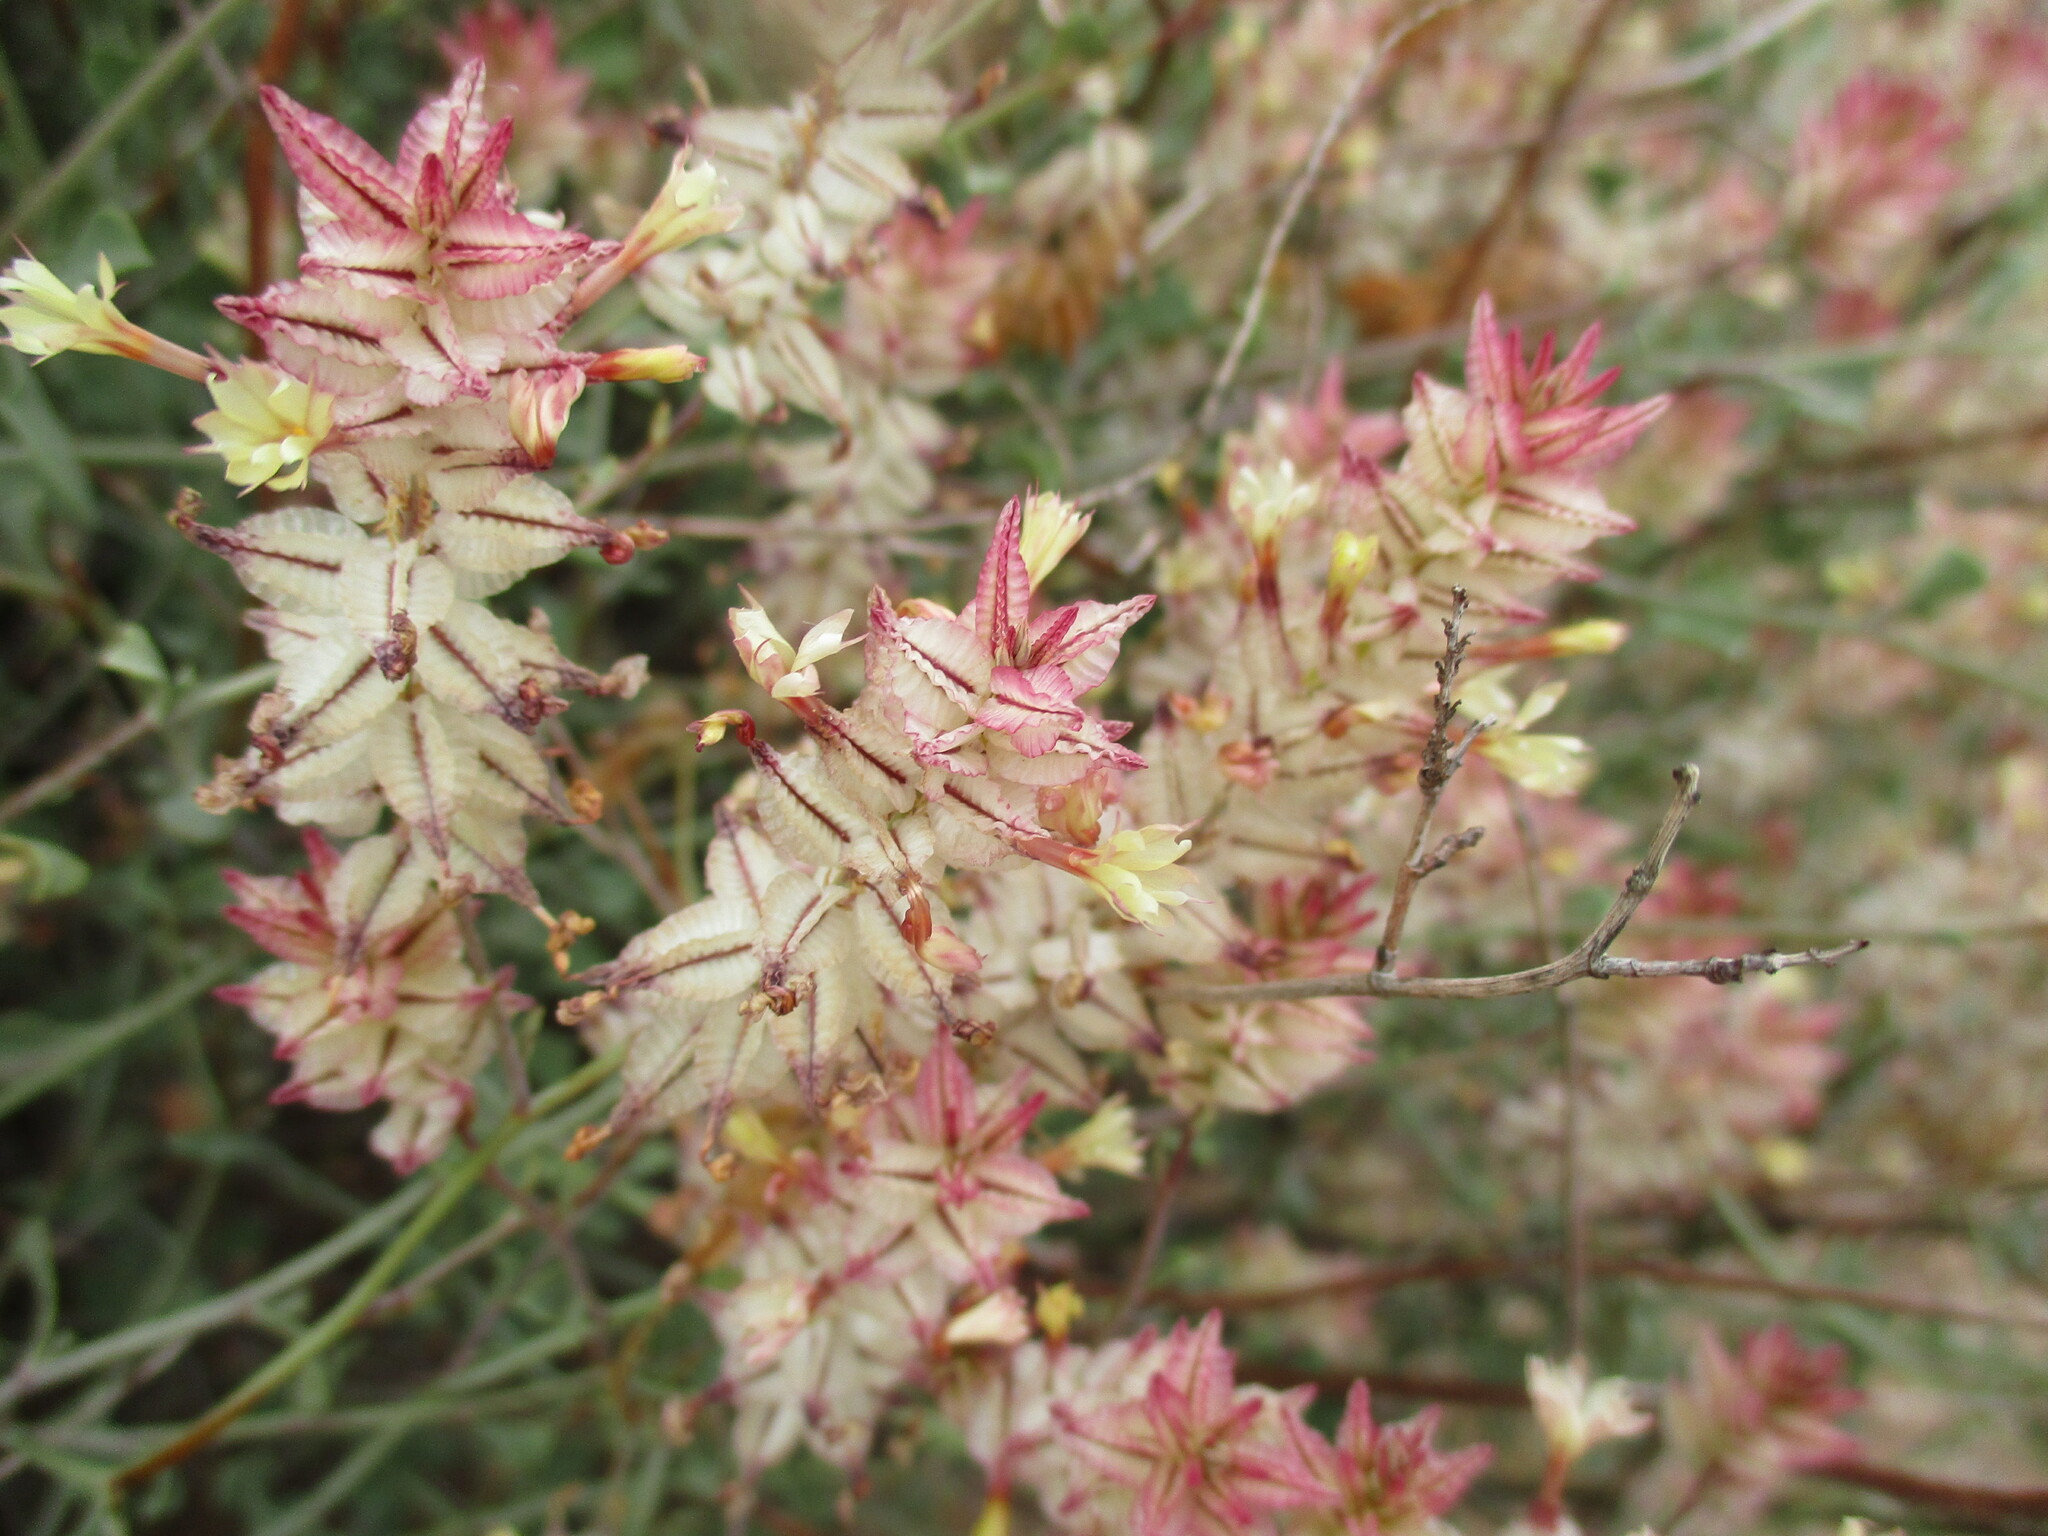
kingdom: Plantae
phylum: Tracheophyta
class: Magnoliopsida
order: Caryophyllales
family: Plumbaginaceae
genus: Dyerophytum
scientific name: Dyerophytum africanum
